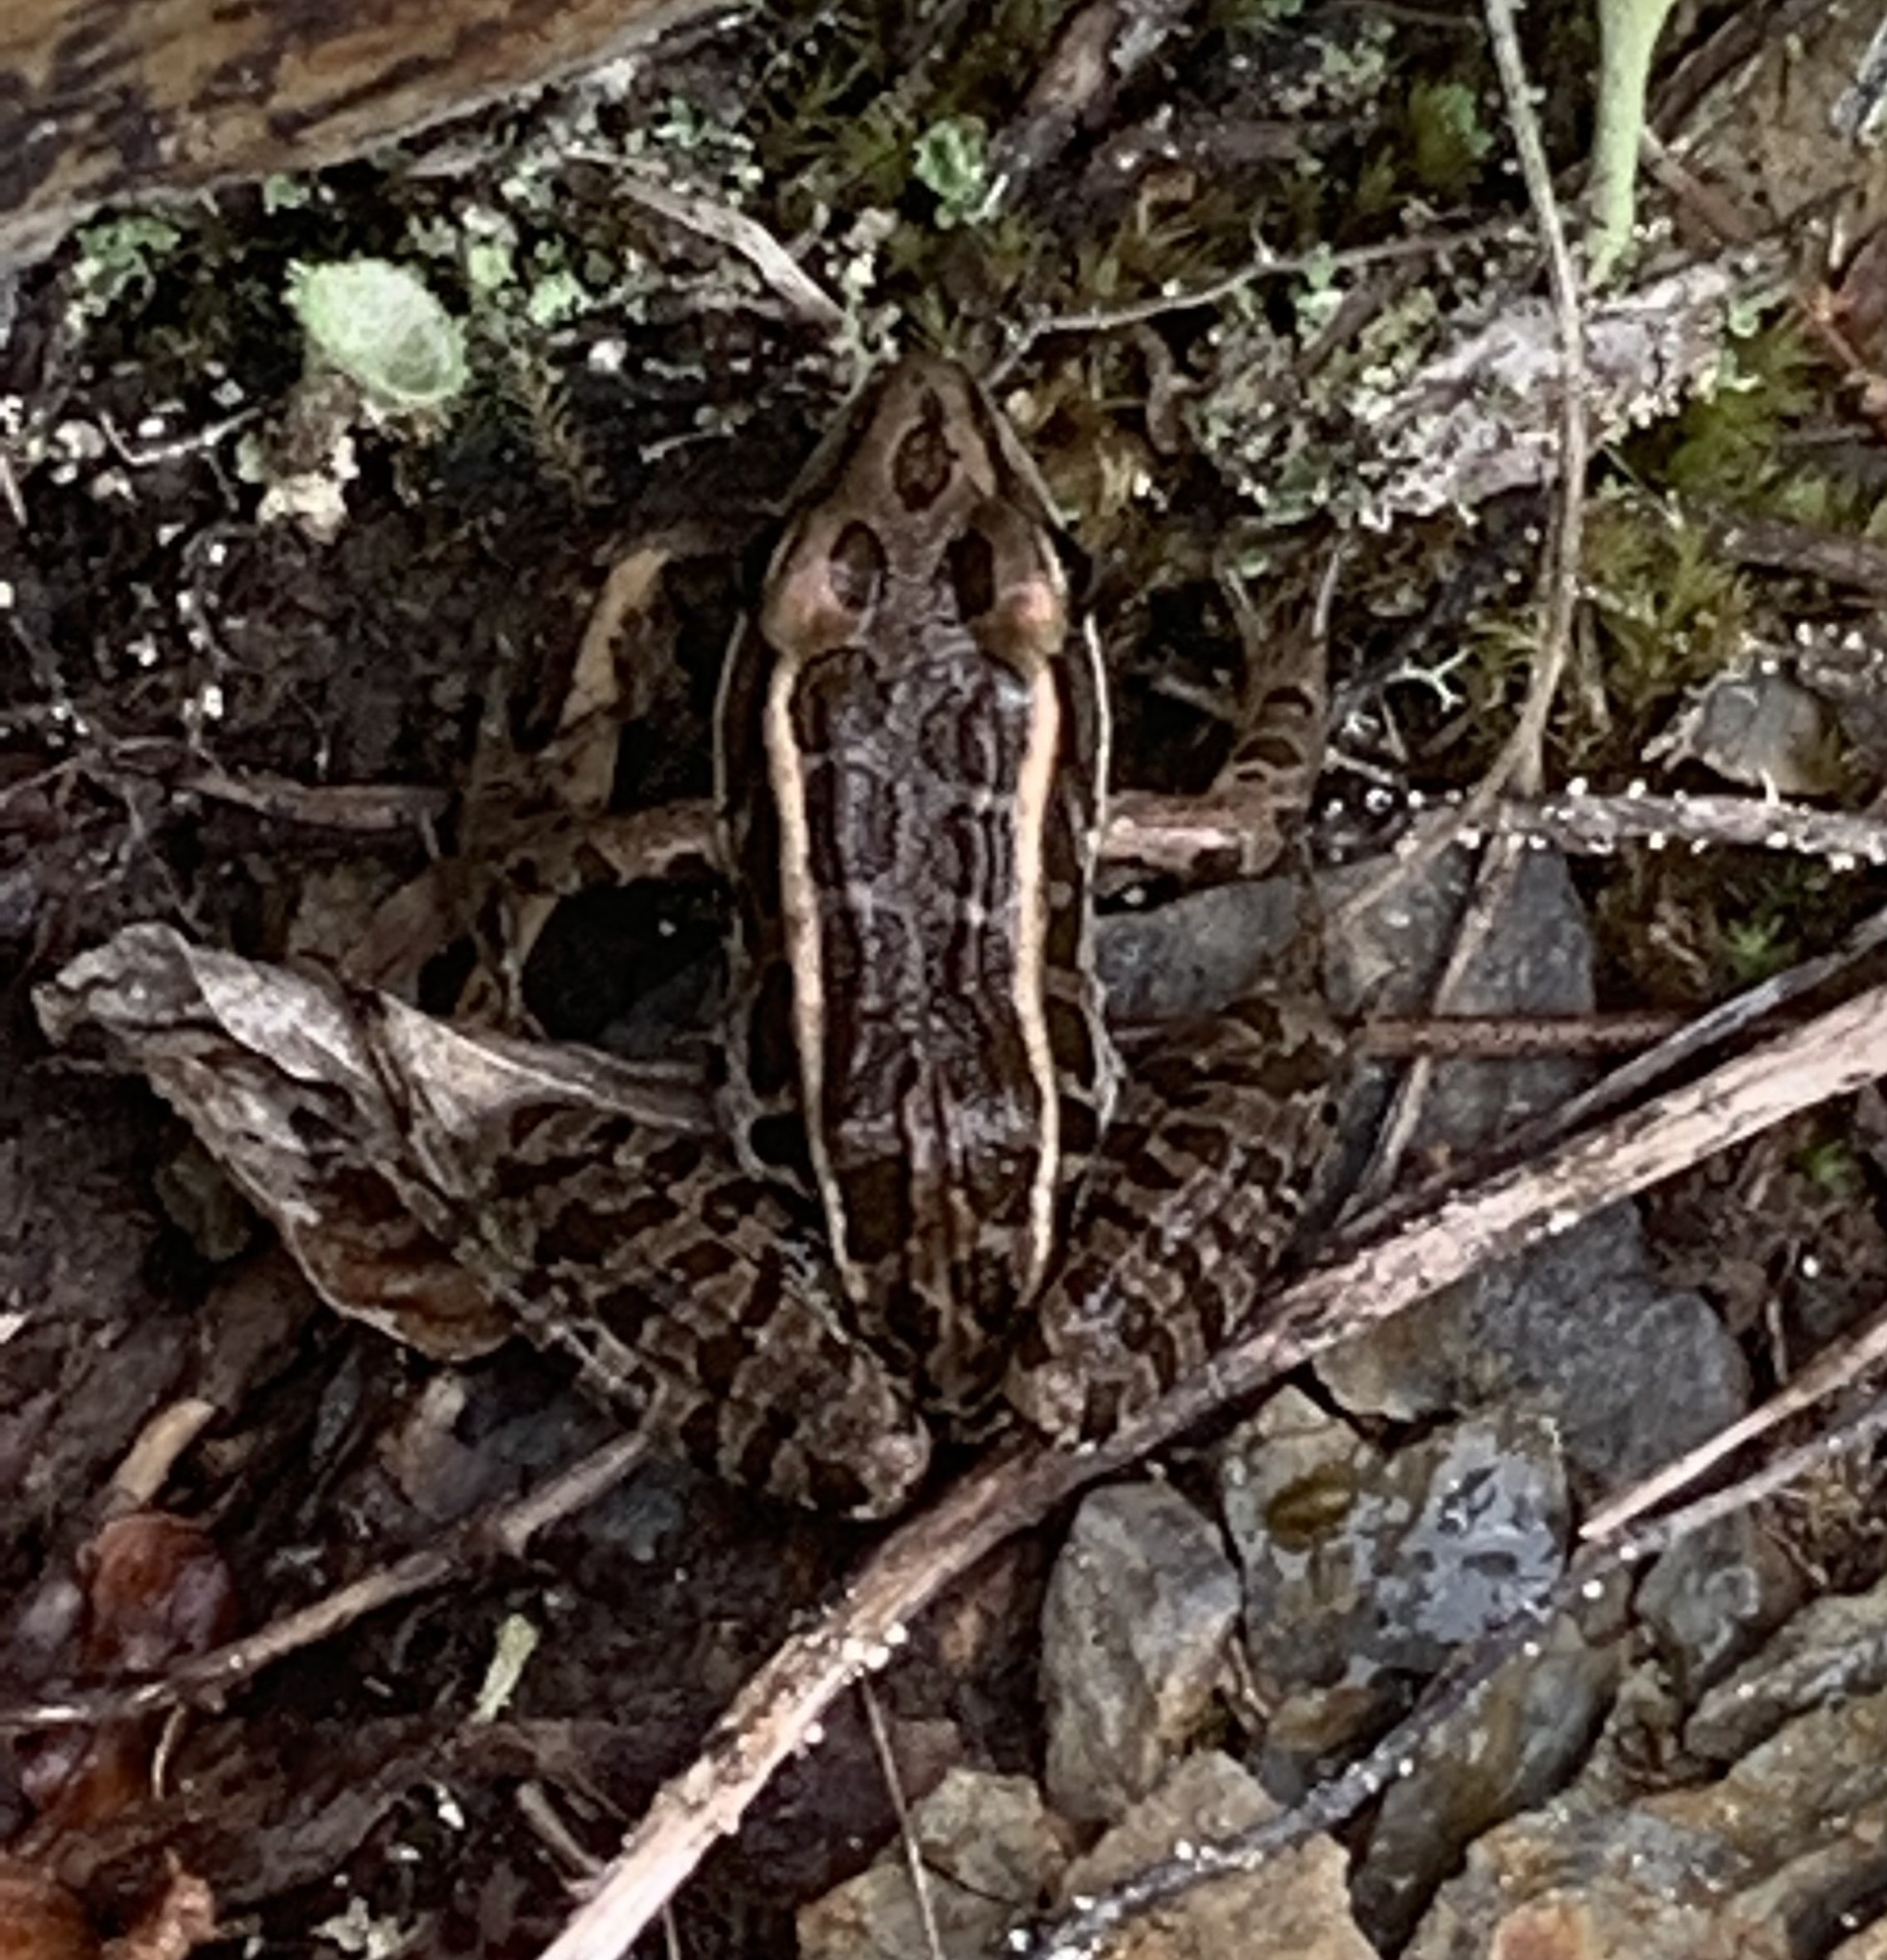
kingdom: Animalia
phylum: Chordata
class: Amphibia
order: Anura
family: Ranidae
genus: Lithobates
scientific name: Lithobates palustris
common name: Pickerel frog
